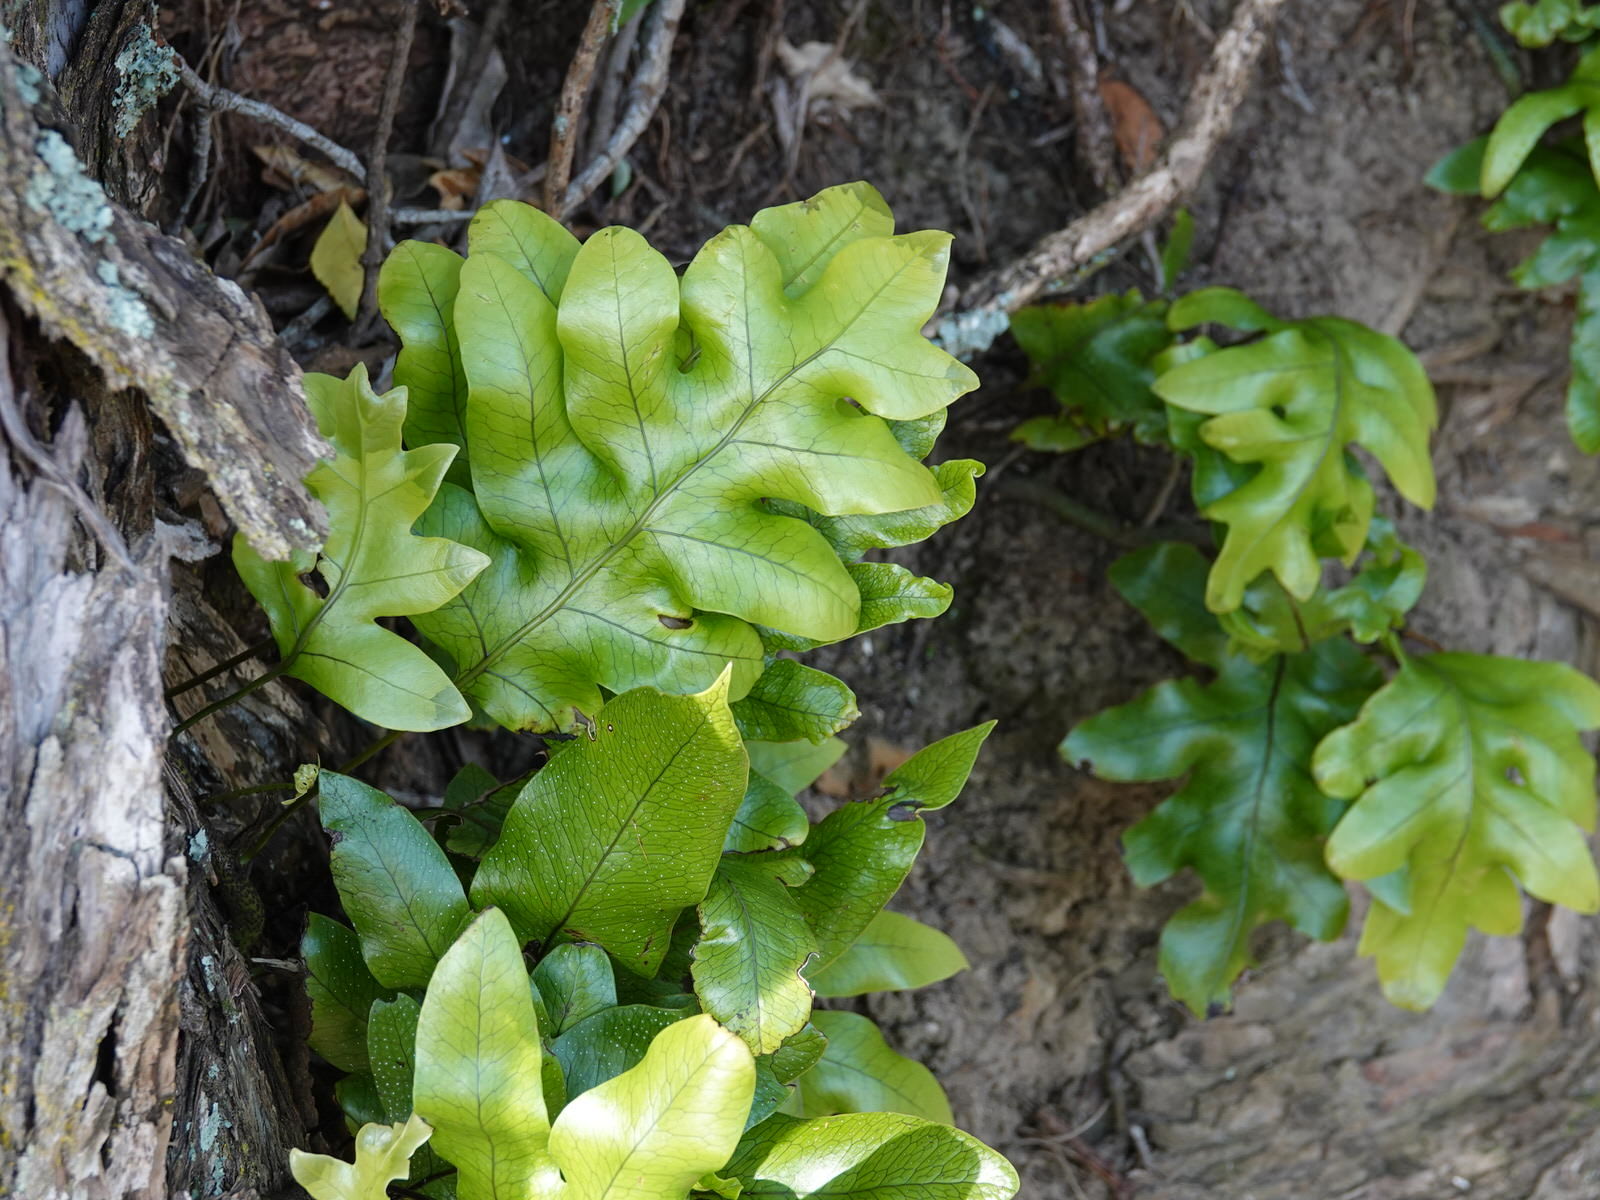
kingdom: Plantae
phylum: Tracheophyta
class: Polypodiopsida
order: Polypodiales
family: Polypodiaceae
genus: Lecanopteris
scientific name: Lecanopteris pustulata
